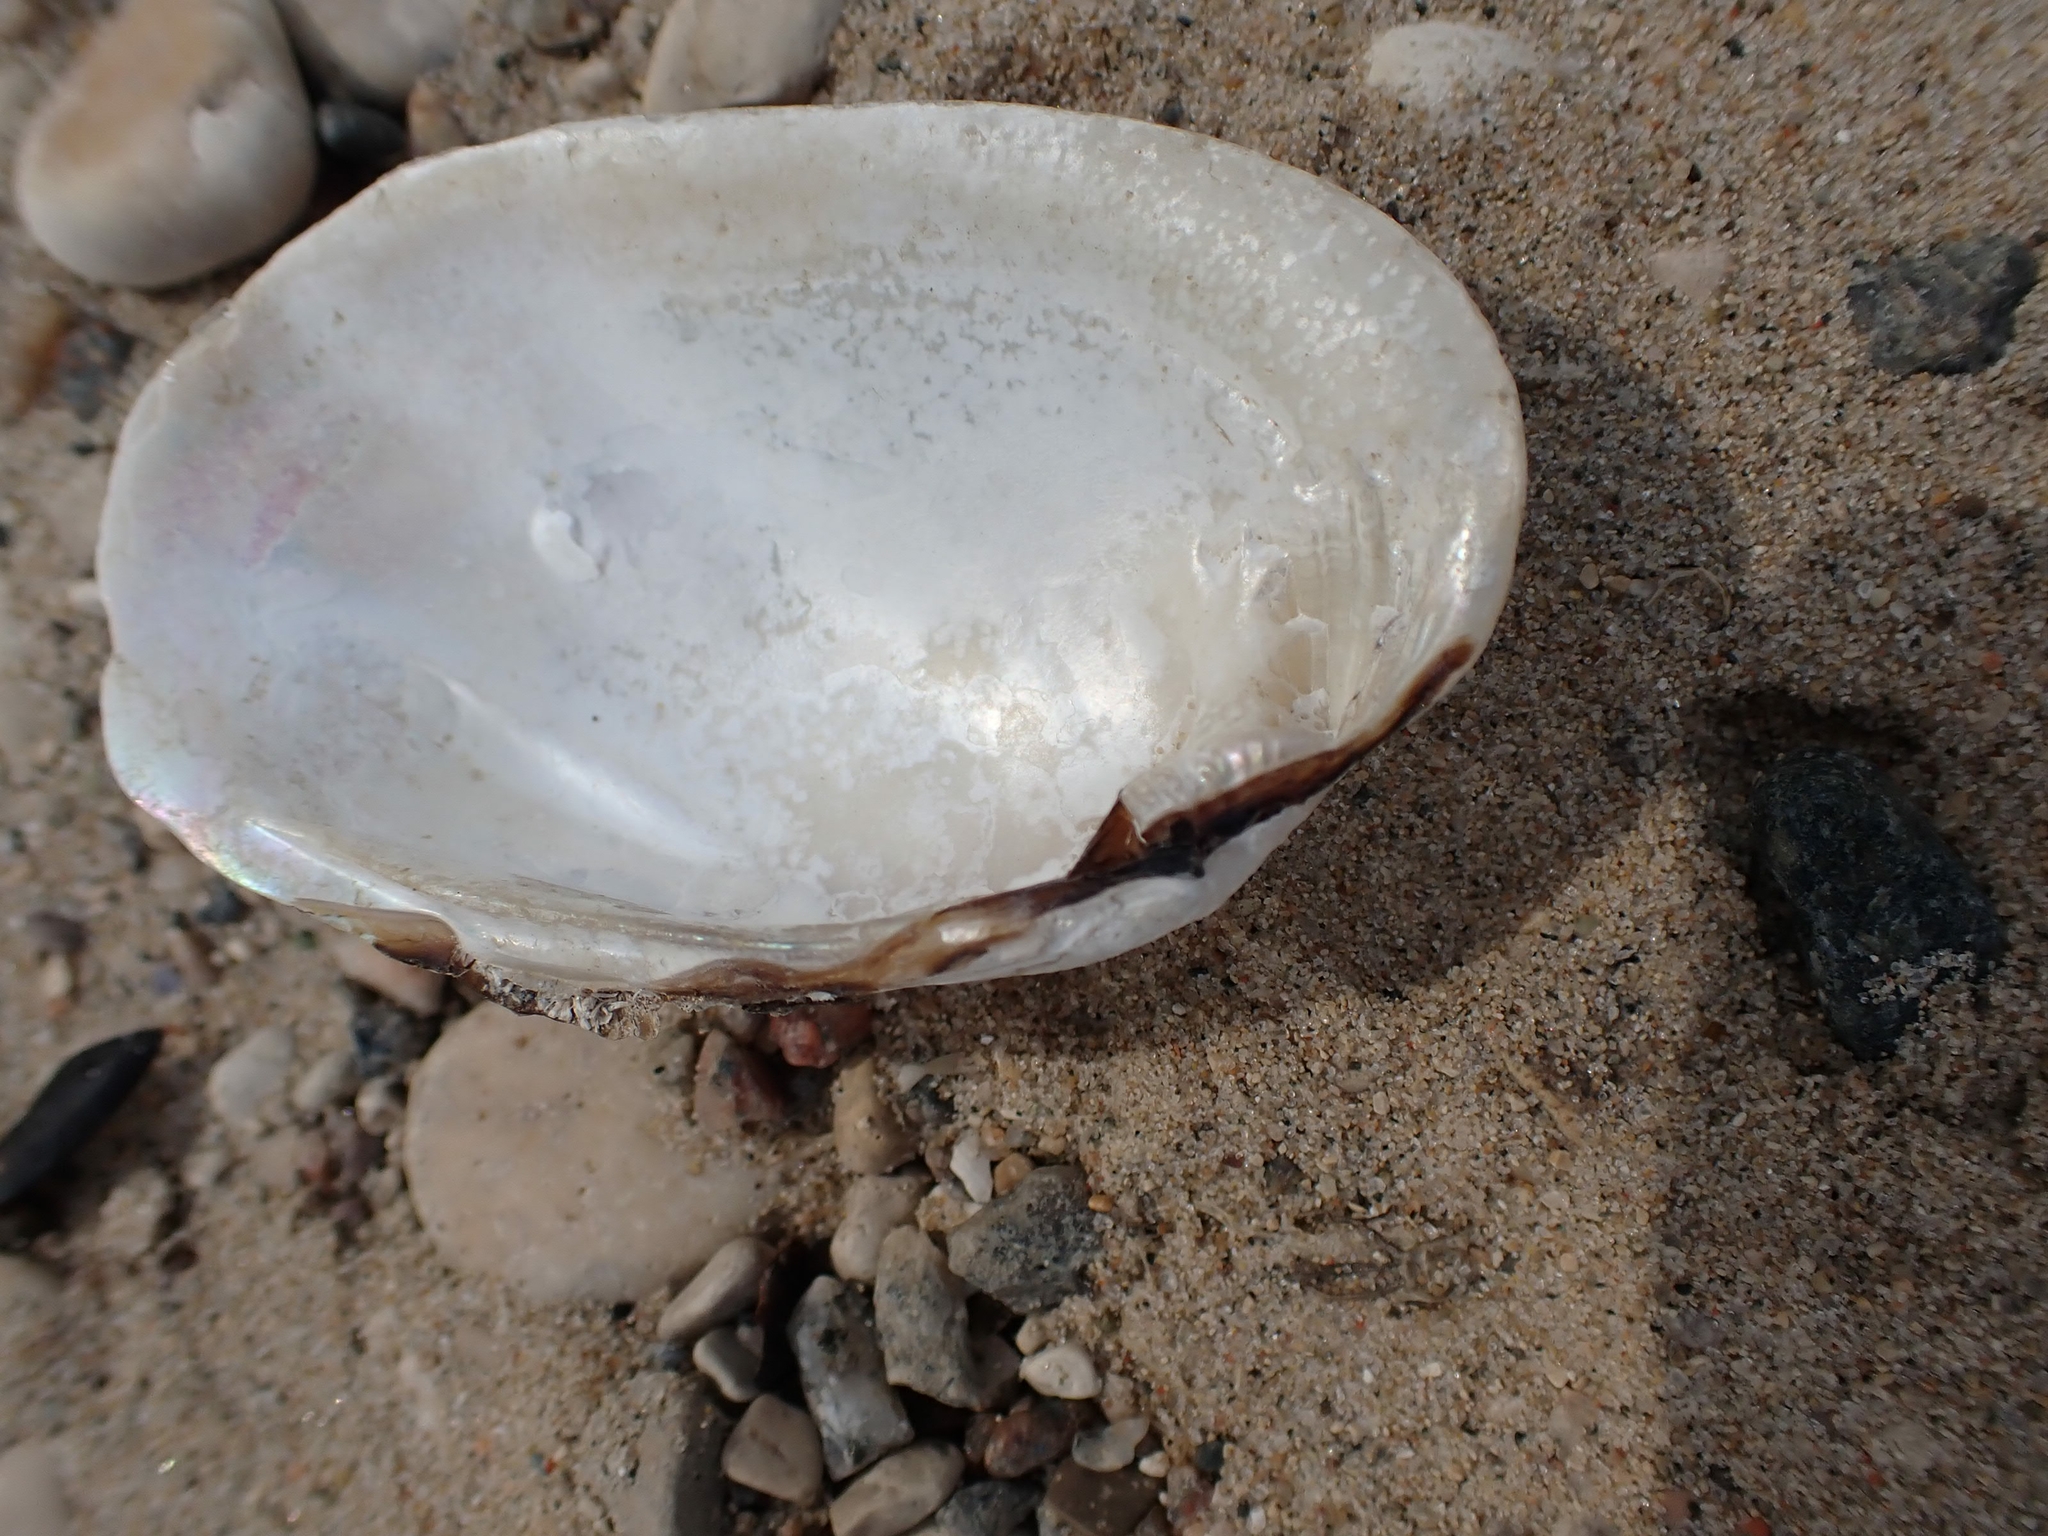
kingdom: Animalia
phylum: Mollusca
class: Bivalvia
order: Unionida
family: Unionidae
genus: Lampsilis
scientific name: Lampsilis siliquoidea
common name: Fatmucket
